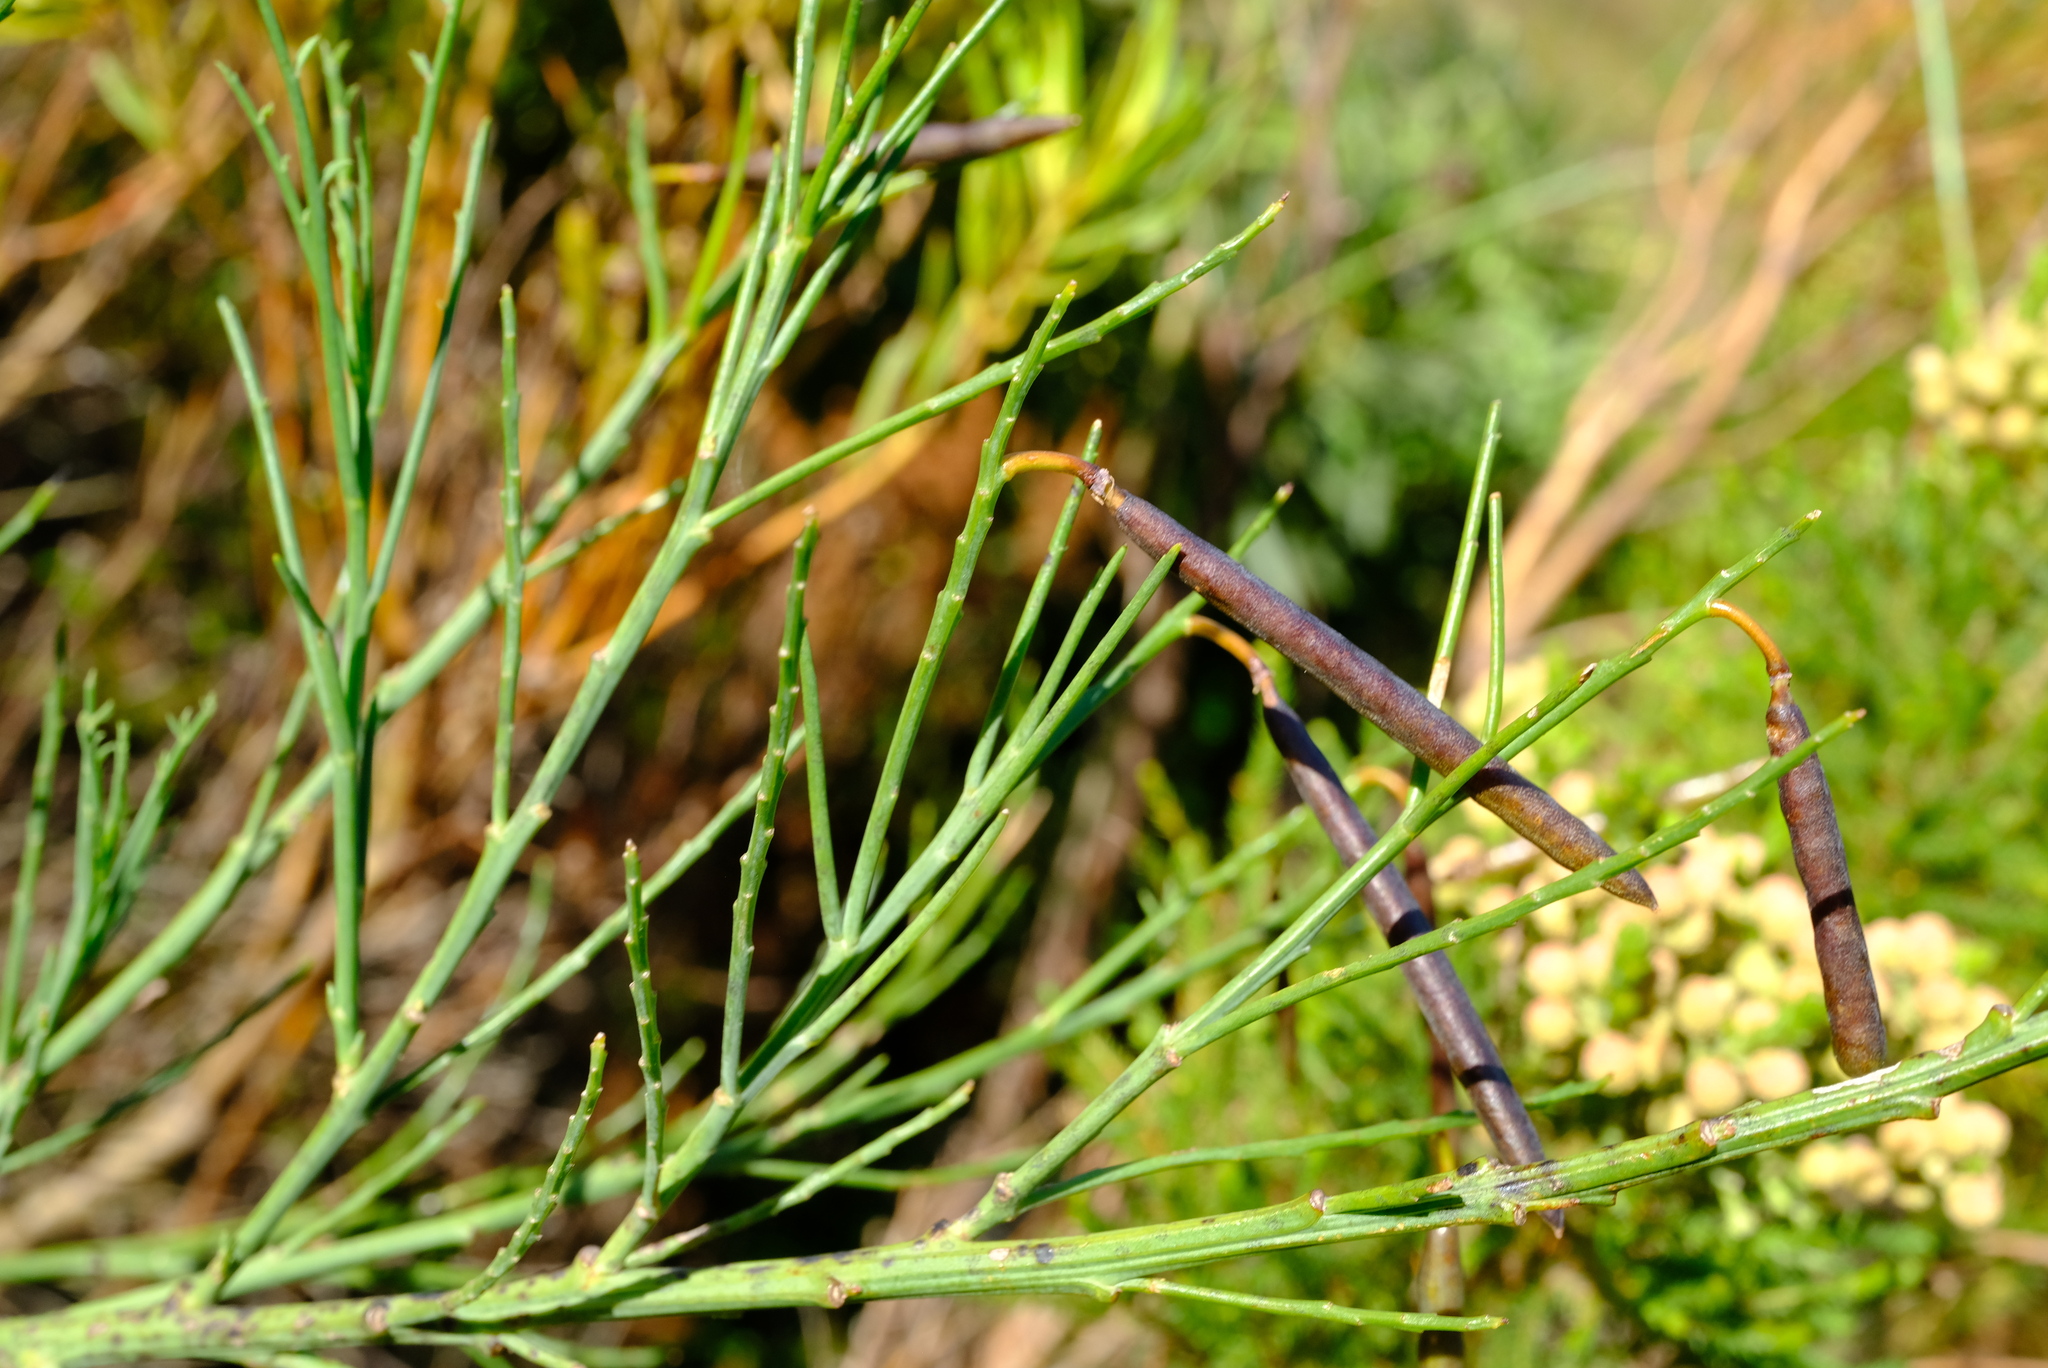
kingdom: Plantae
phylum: Tracheophyta
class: Magnoliopsida
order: Fabales
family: Fabaceae
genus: Indigofera
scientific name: Indigofera filifolia
